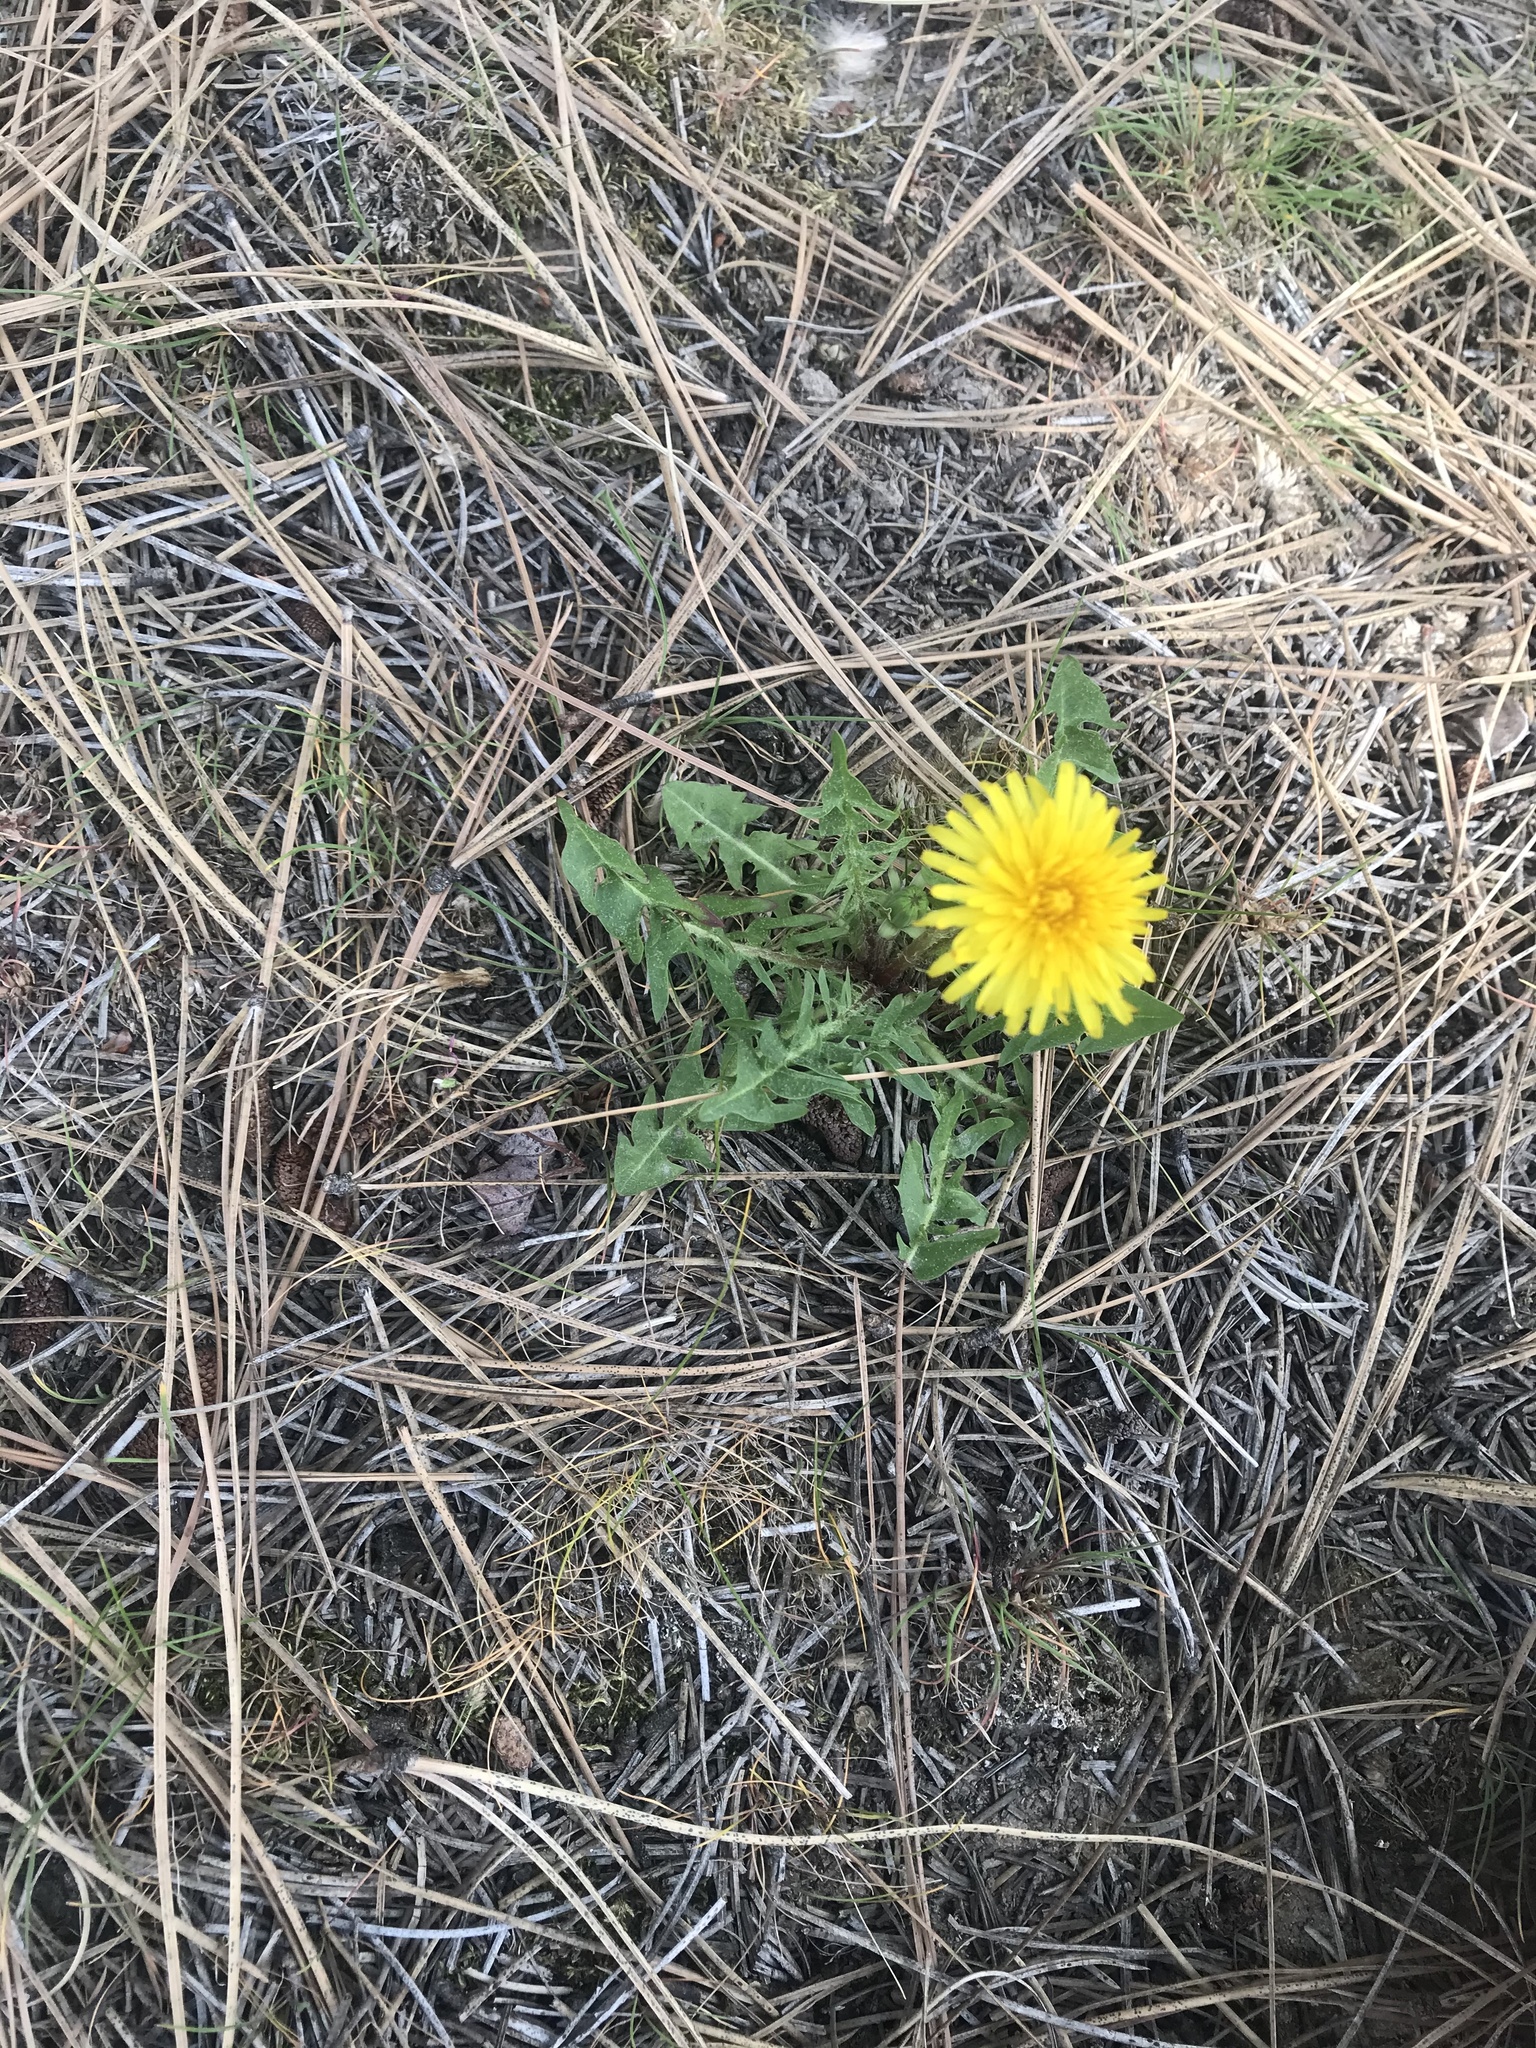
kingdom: Plantae
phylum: Tracheophyta
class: Magnoliopsida
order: Asterales
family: Asteraceae
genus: Taraxacum
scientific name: Taraxacum officinale
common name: Common dandelion
